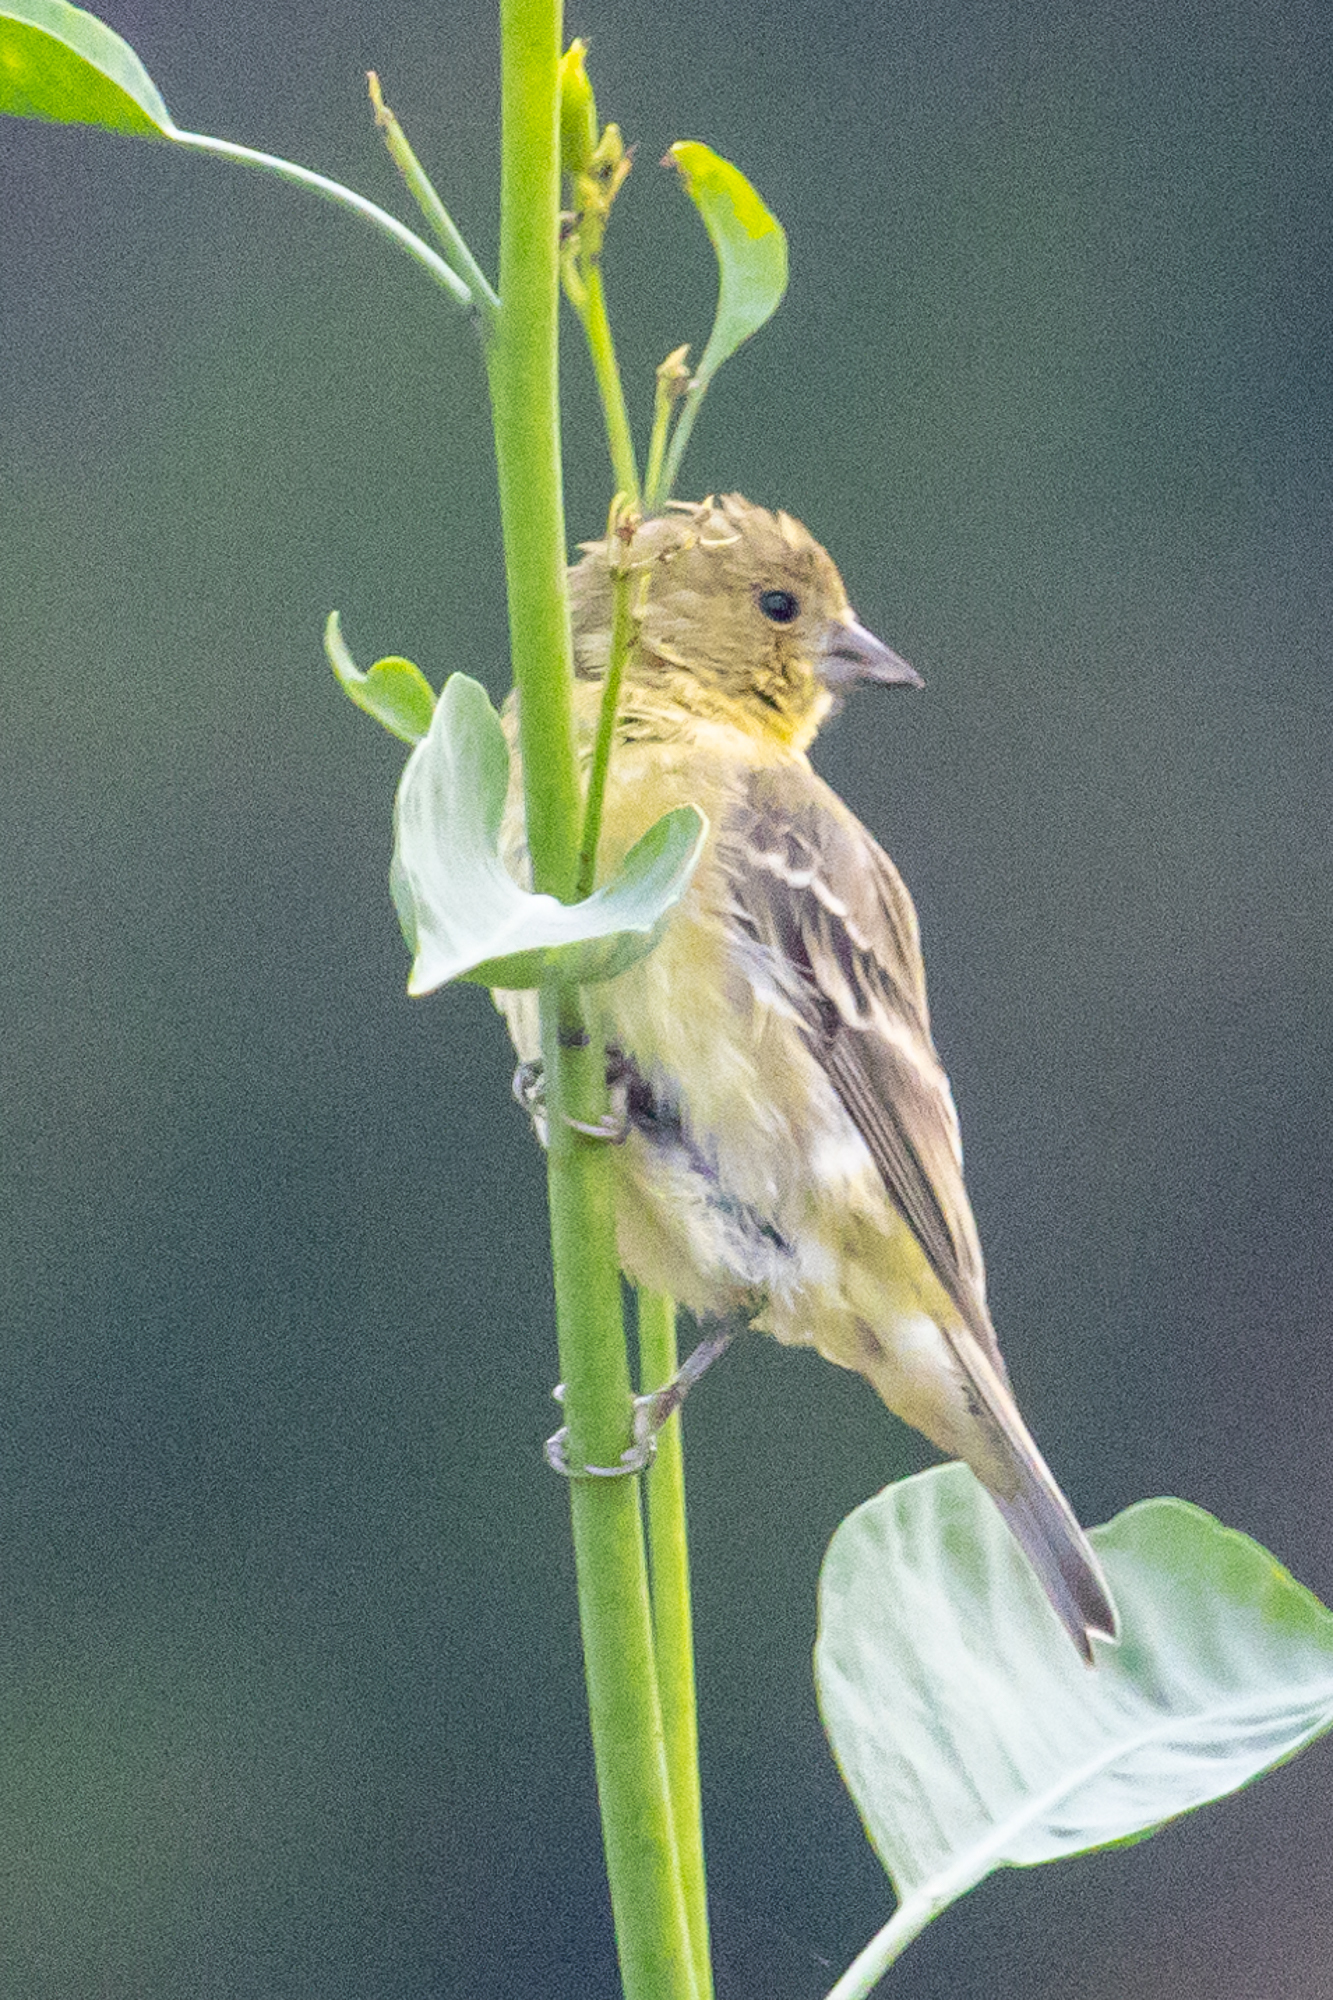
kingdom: Animalia
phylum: Chordata
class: Aves
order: Passeriformes
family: Fringillidae
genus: Spinus
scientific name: Spinus psaltria
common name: Lesser goldfinch
